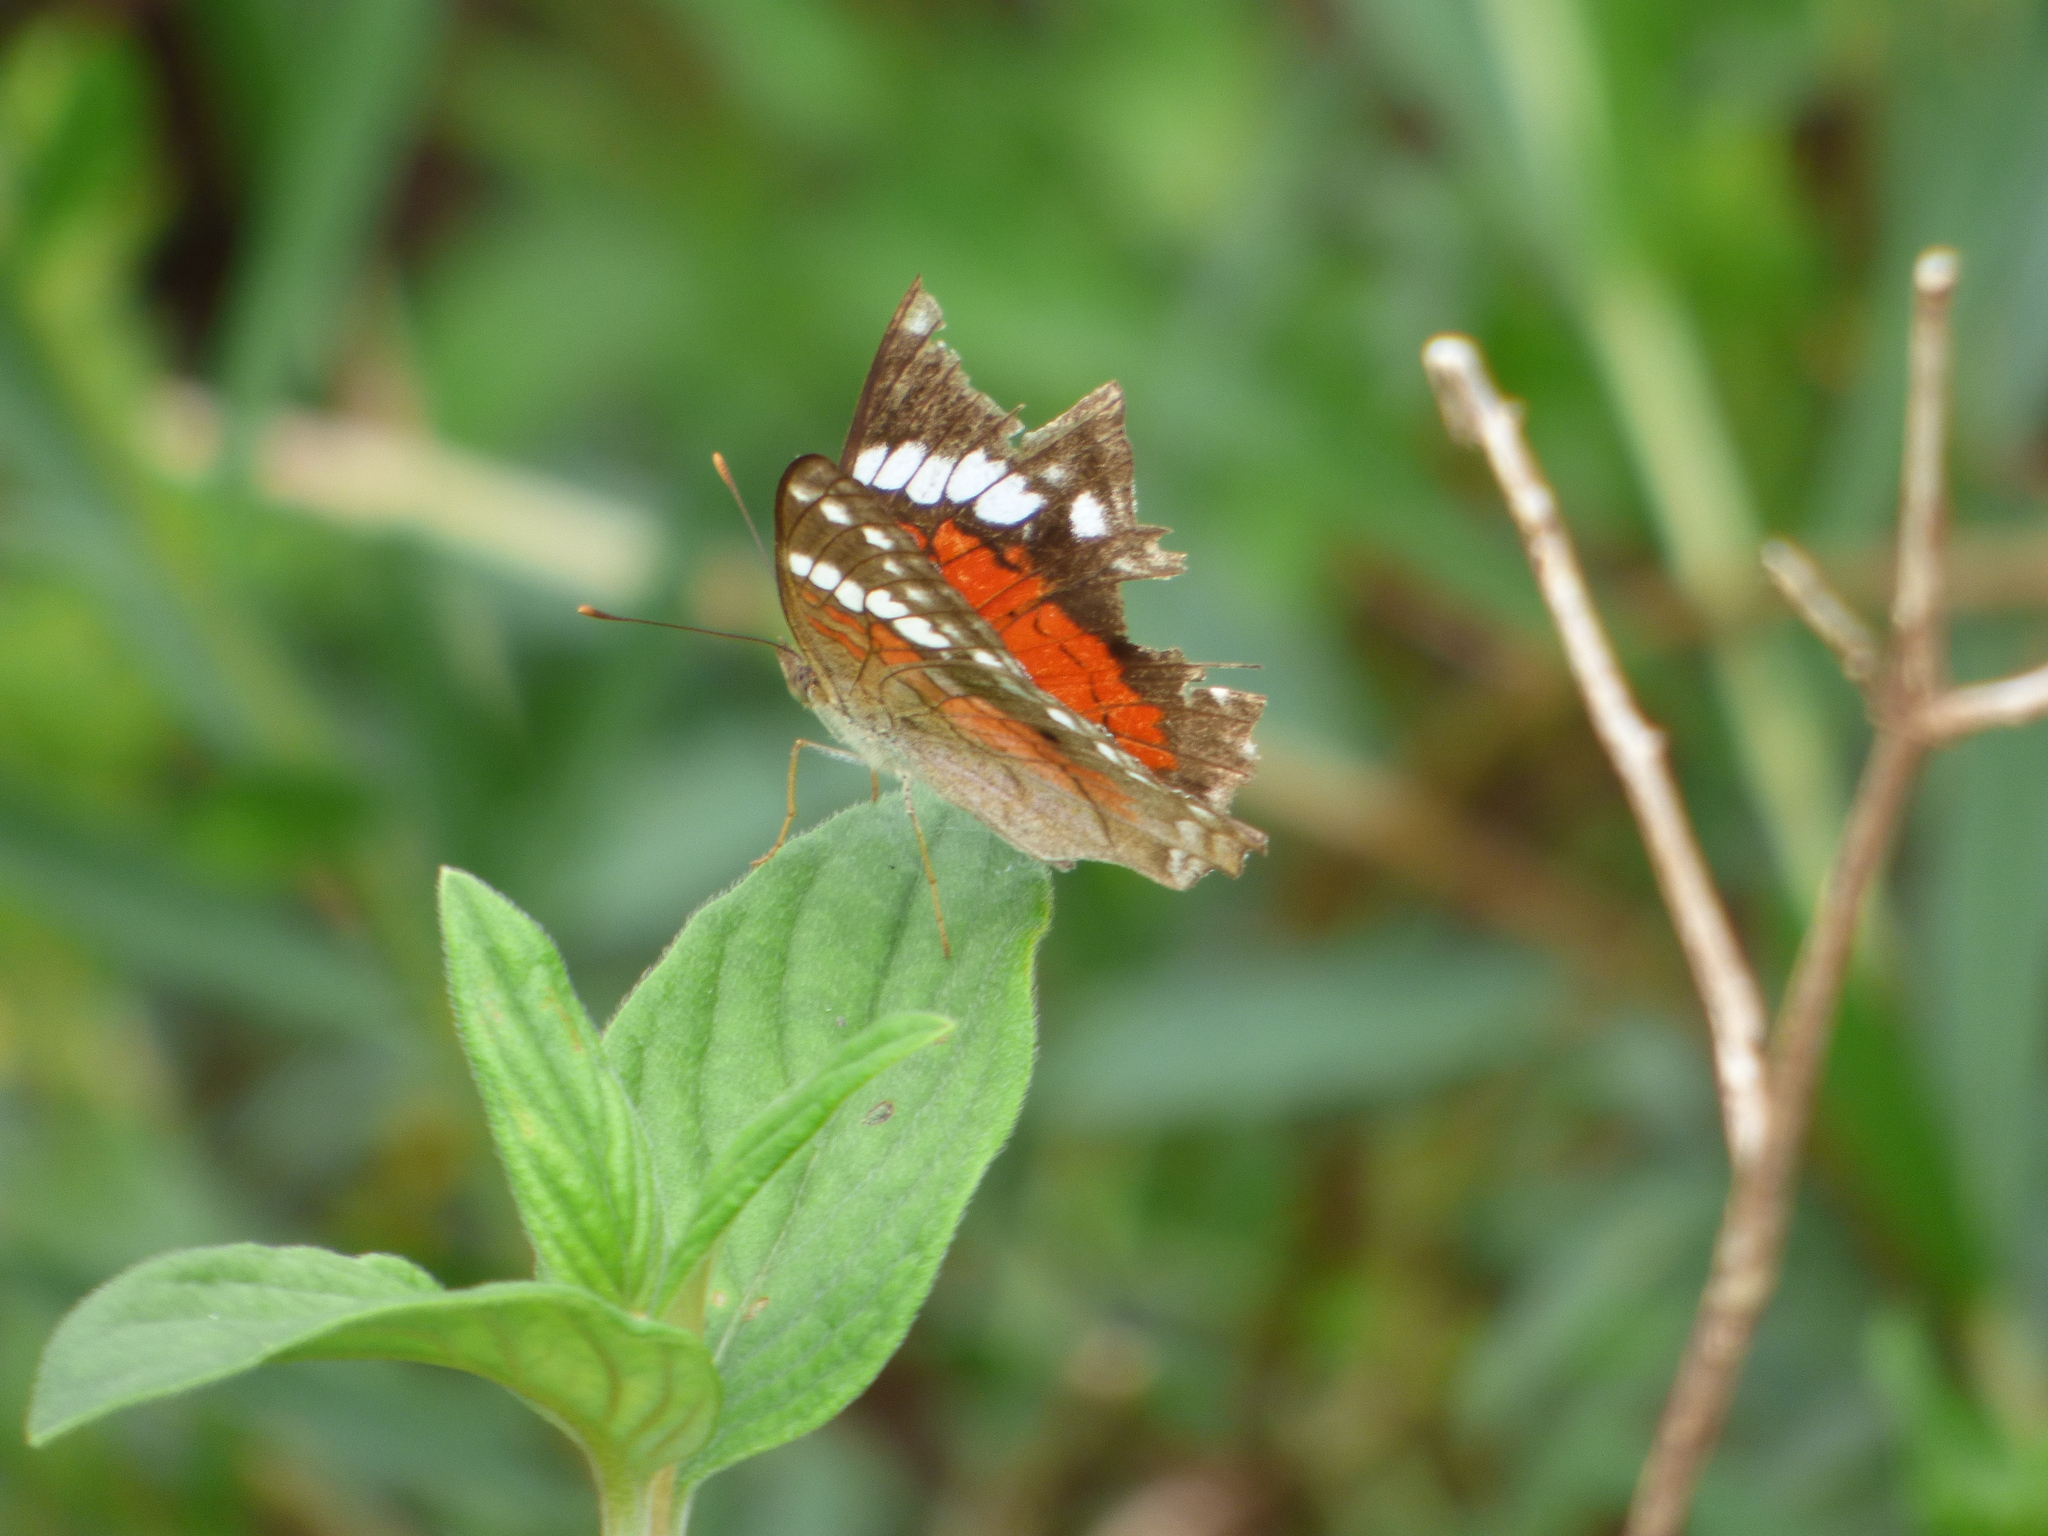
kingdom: Animalia
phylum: Arthropoda
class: Insecta
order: Lepidoptera
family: Nymphalidae
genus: Anartia
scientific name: Anartia amathea
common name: Red peacock
